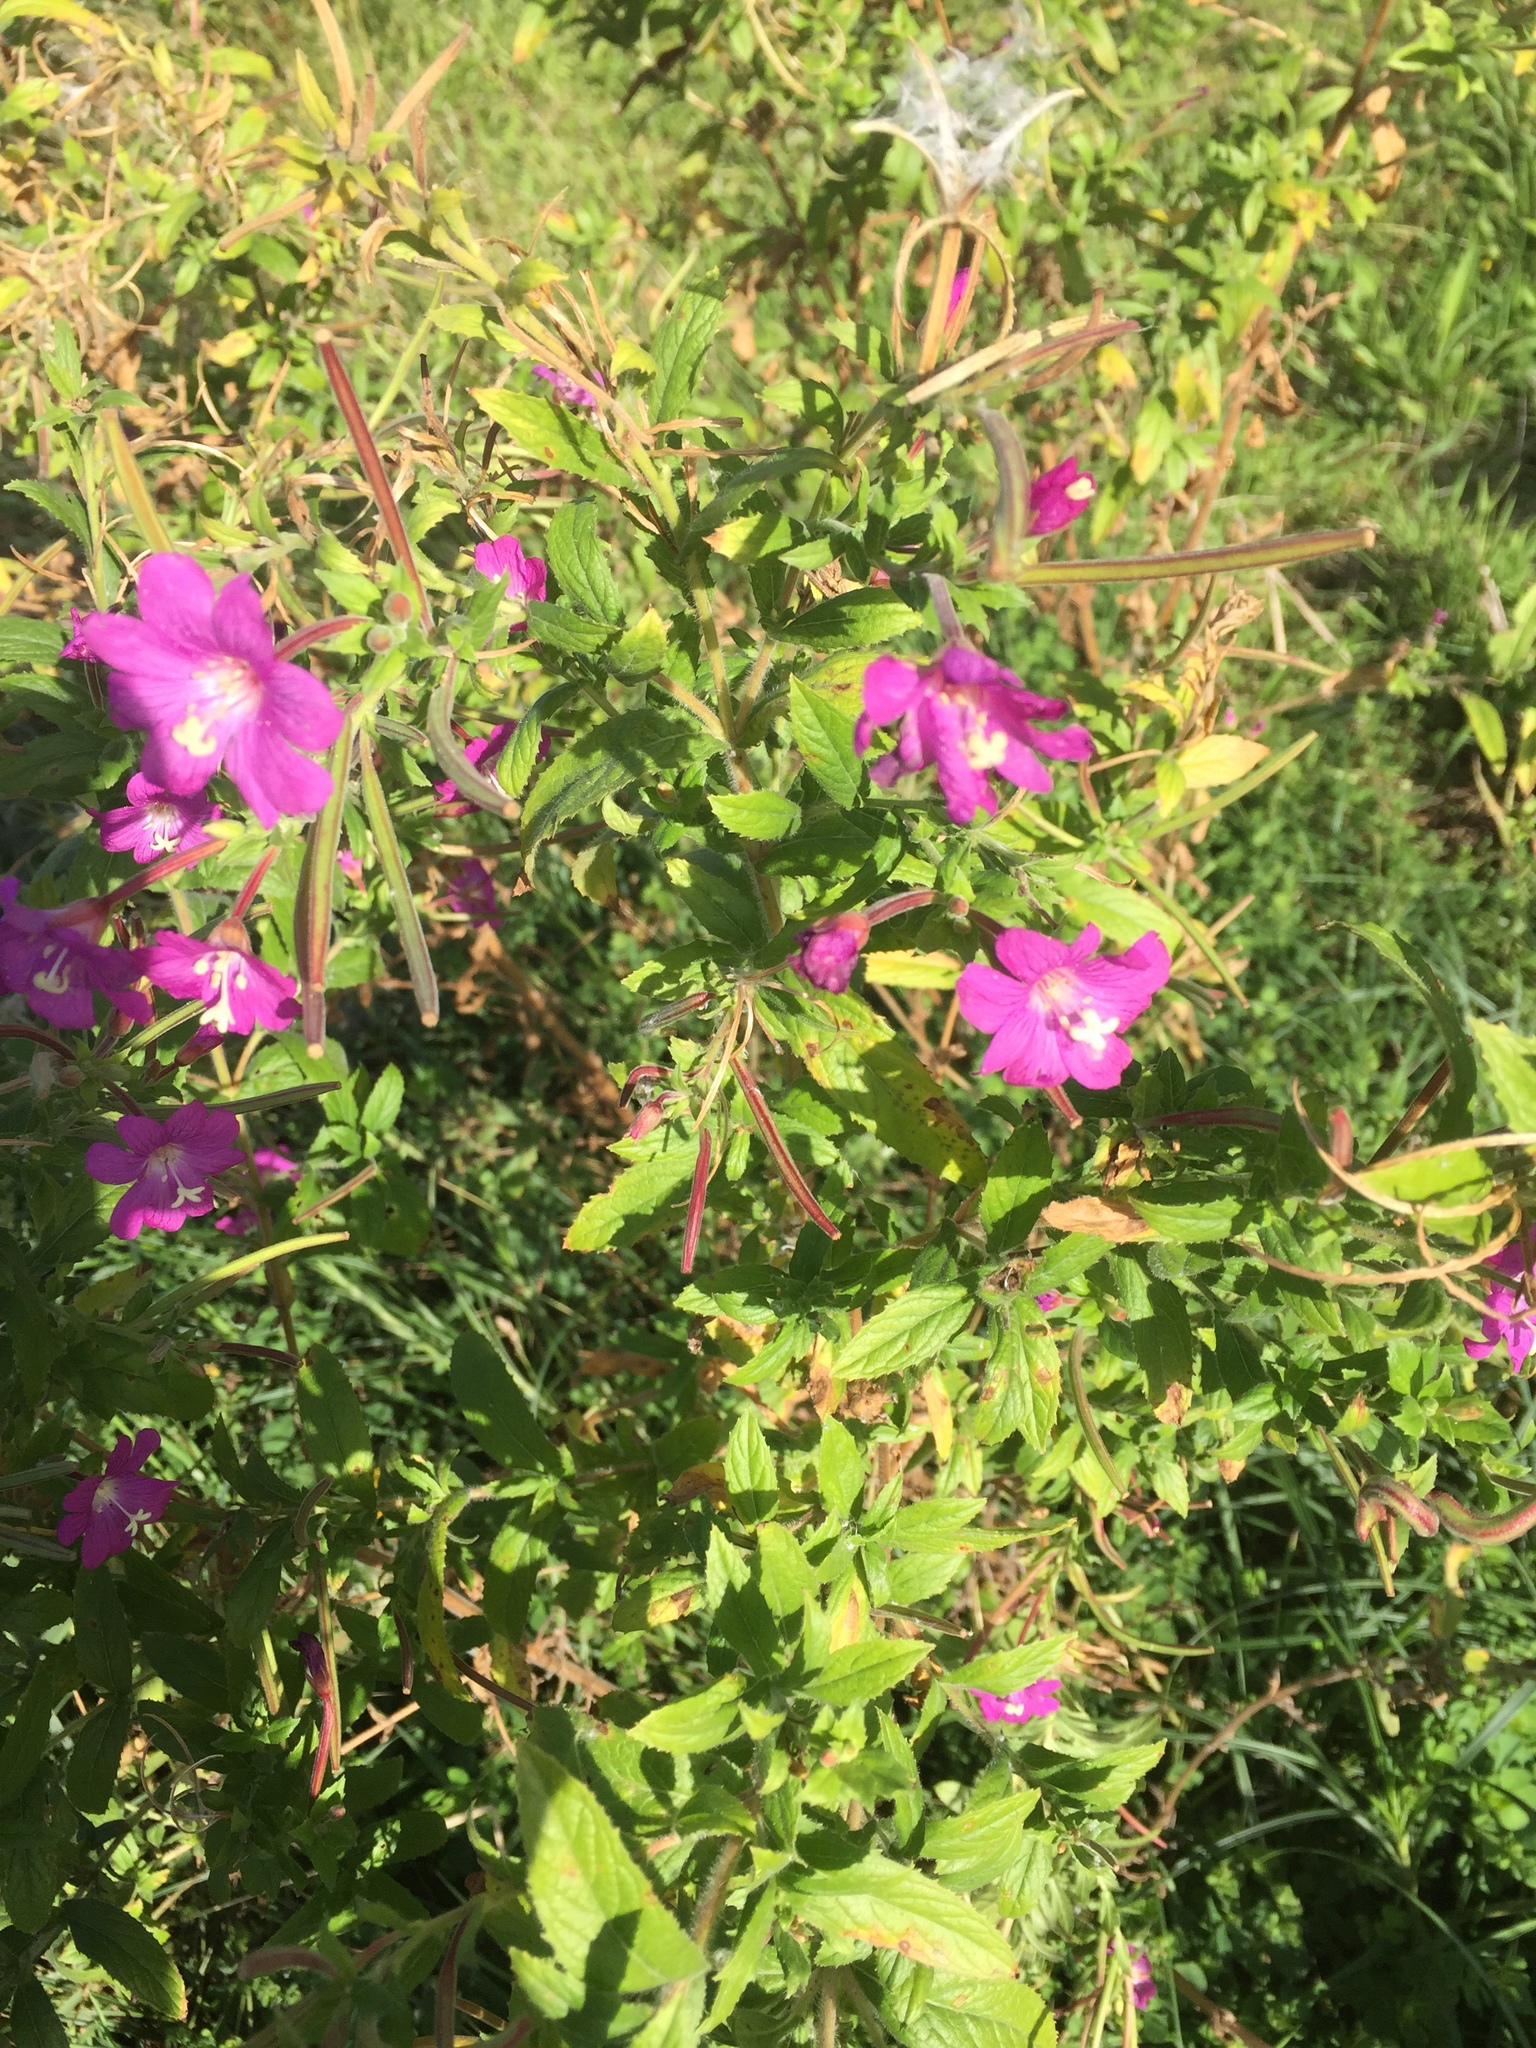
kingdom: Plantae
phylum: Tracheophyta
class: Magnoliopsida
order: Myrtales
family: Onagraceae
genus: Epilobium
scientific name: Epilobium hirsutum
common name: Great willowherb
